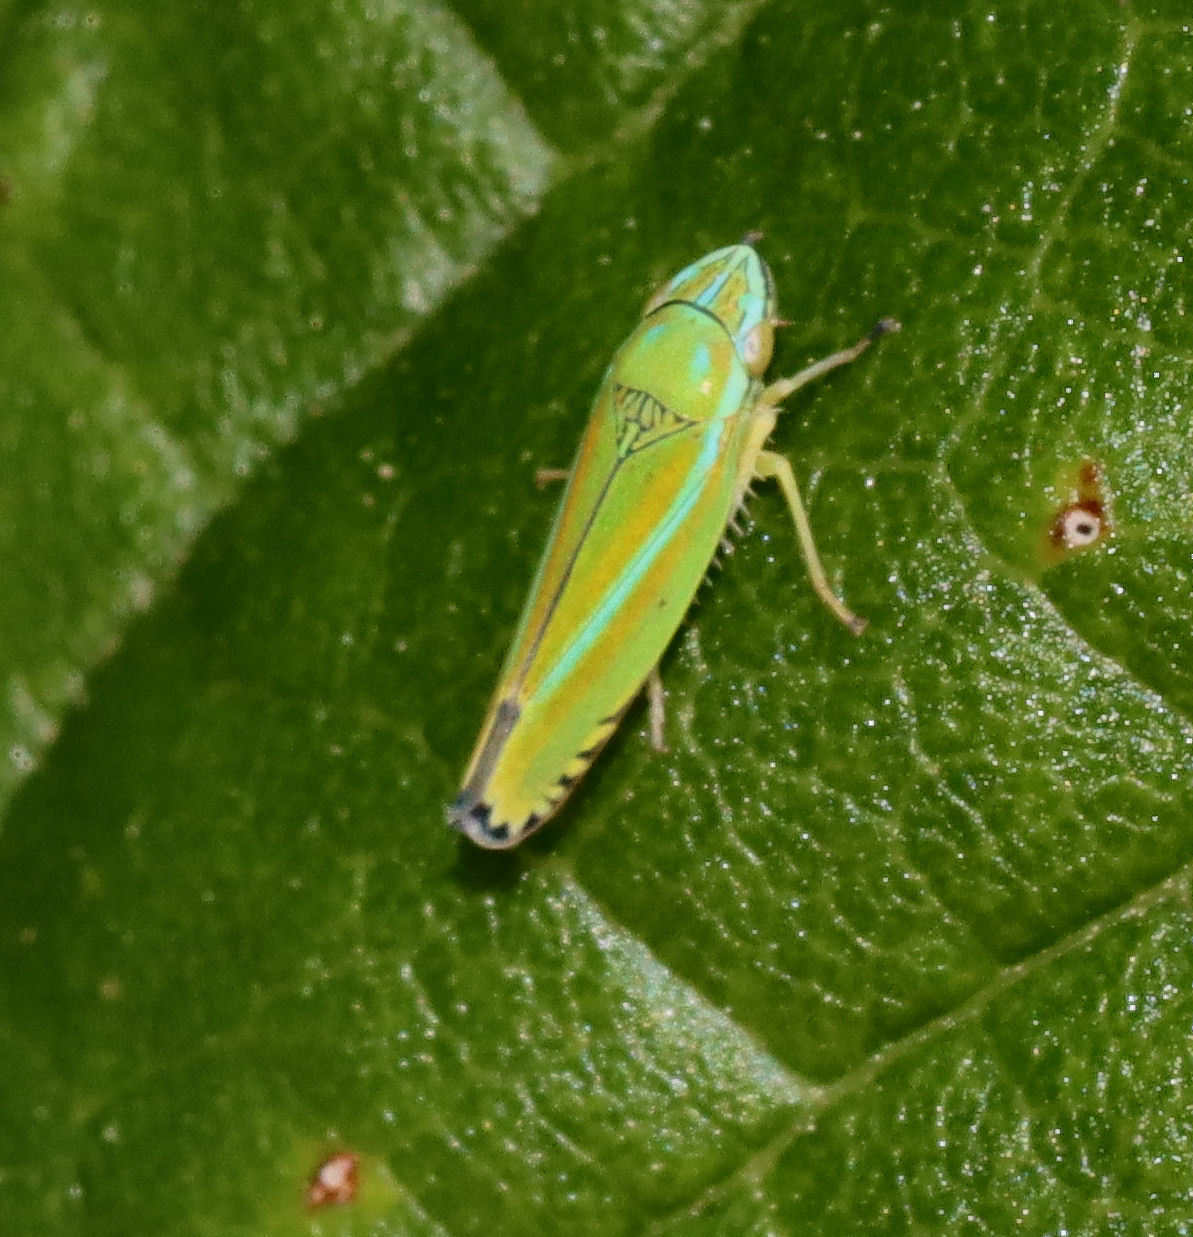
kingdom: Animalia
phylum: Arthropoda
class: Insecta
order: Hemiptera
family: Cicadellidae
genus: Graphocephala
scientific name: Graphocephala versuta
